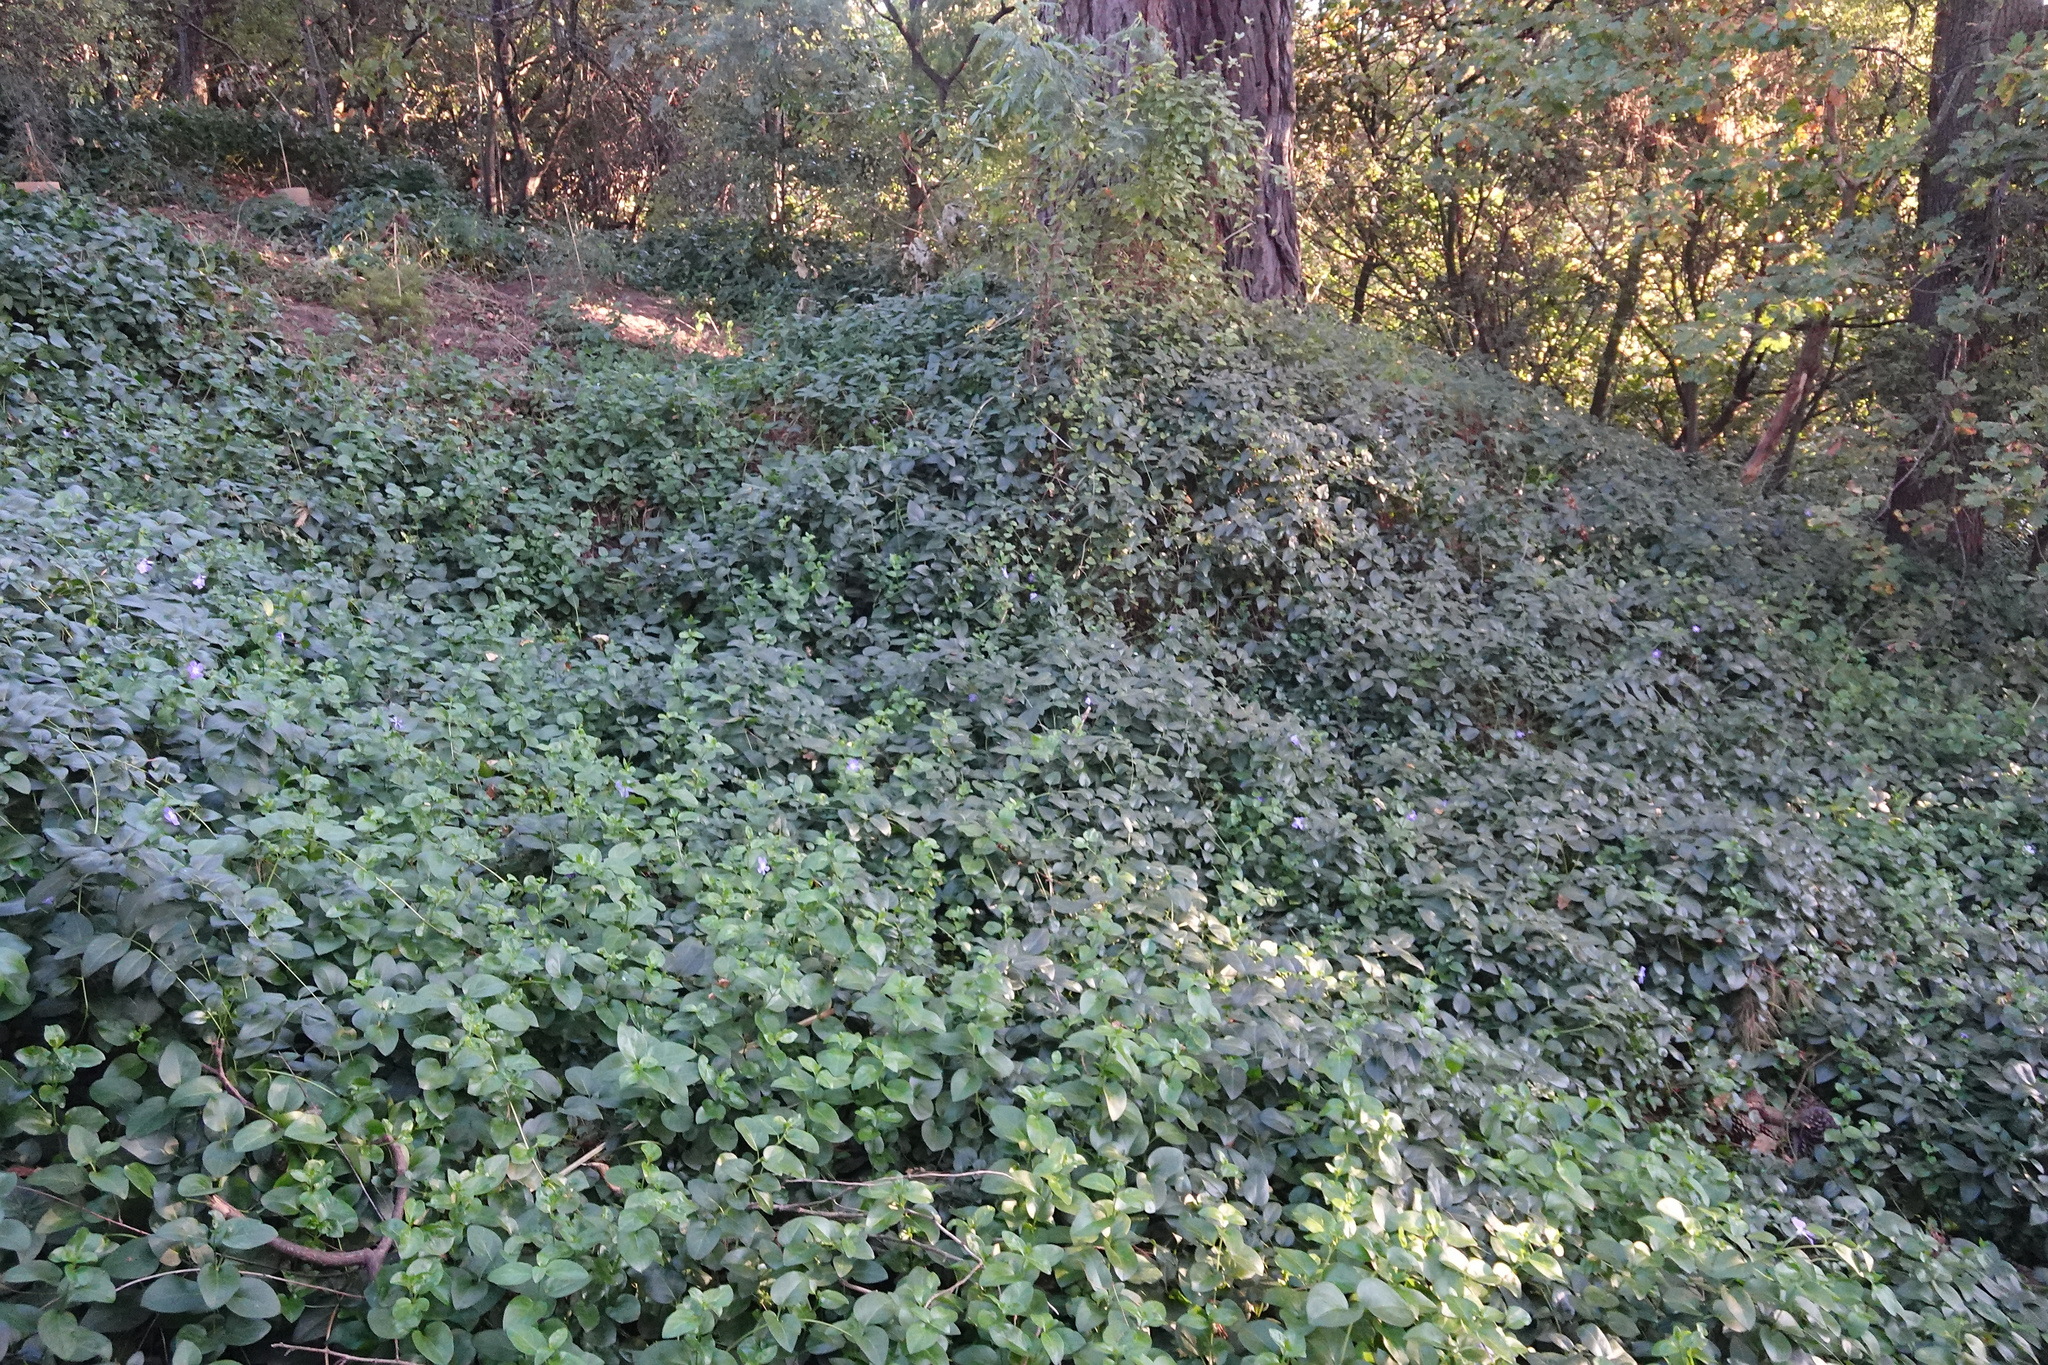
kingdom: Plantae
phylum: Tracheophyta
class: Magnoliopsida
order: Gentianales
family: Apocynaceae
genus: Vinca
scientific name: Vinca major
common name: Greater periwinkle
